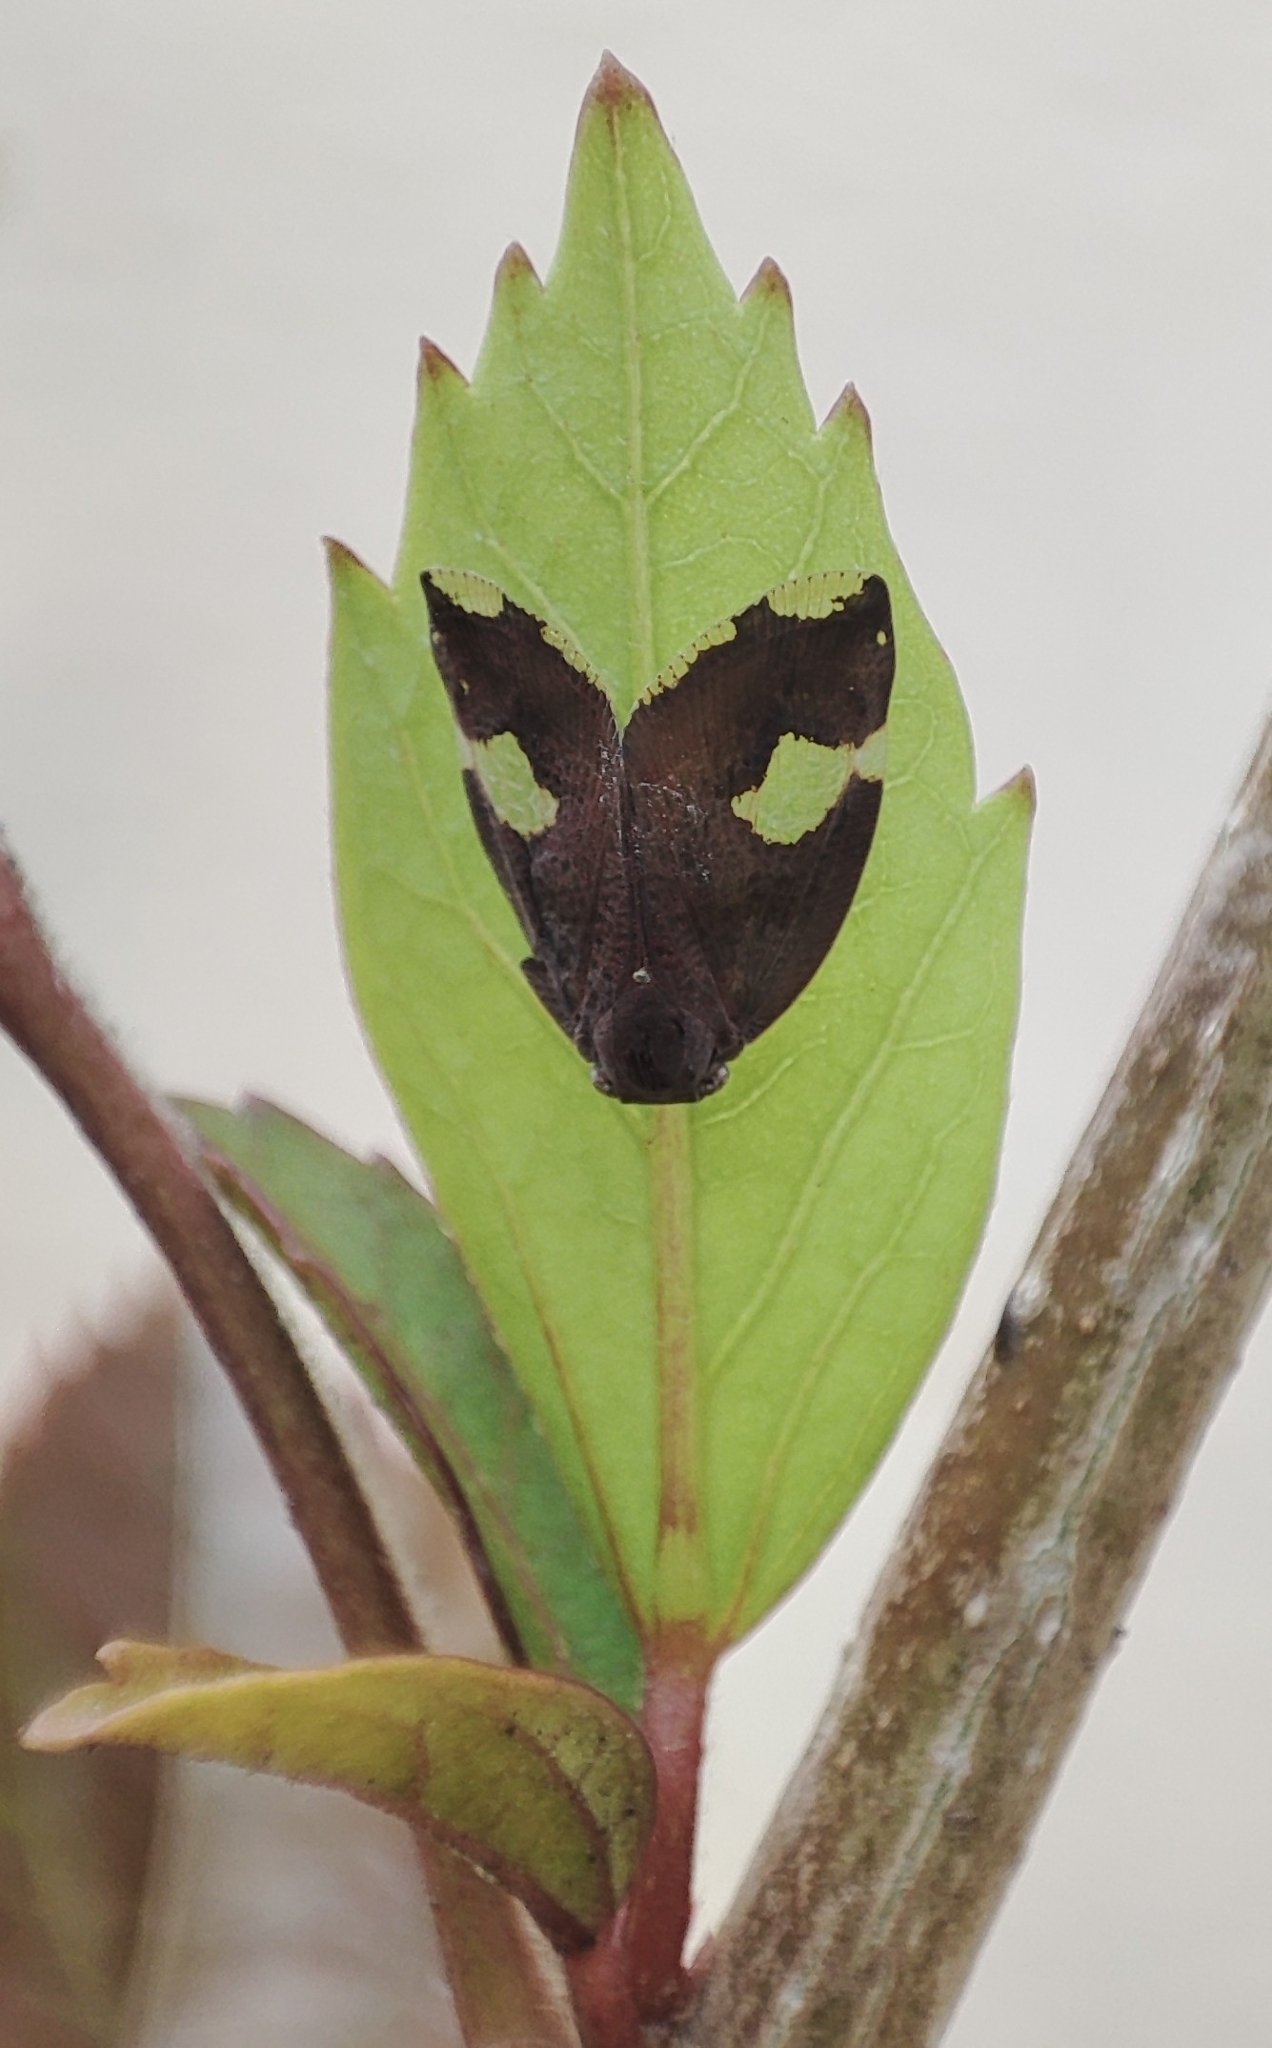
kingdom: Animalia
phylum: Arthropoda
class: Insecta
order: Hemiptera
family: Ricaniidae
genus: Ricania
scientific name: Ricania fenestrata
